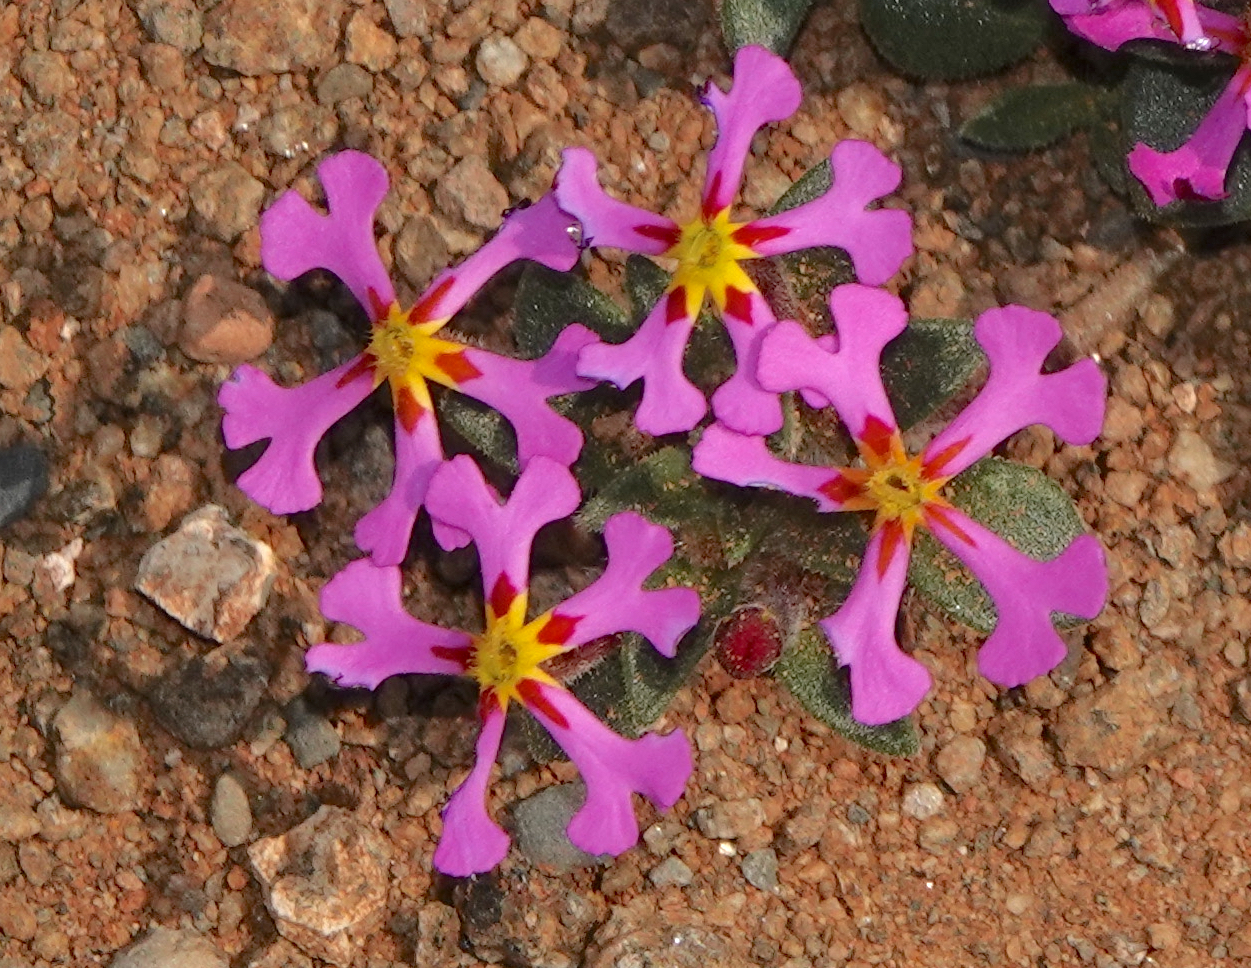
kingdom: Plantae
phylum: Tracheophyta
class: Magnoliopsida
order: Lamiales
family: Scrophulariaceae
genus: Zaluzianskya
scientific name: Zaluzianskya violacea
